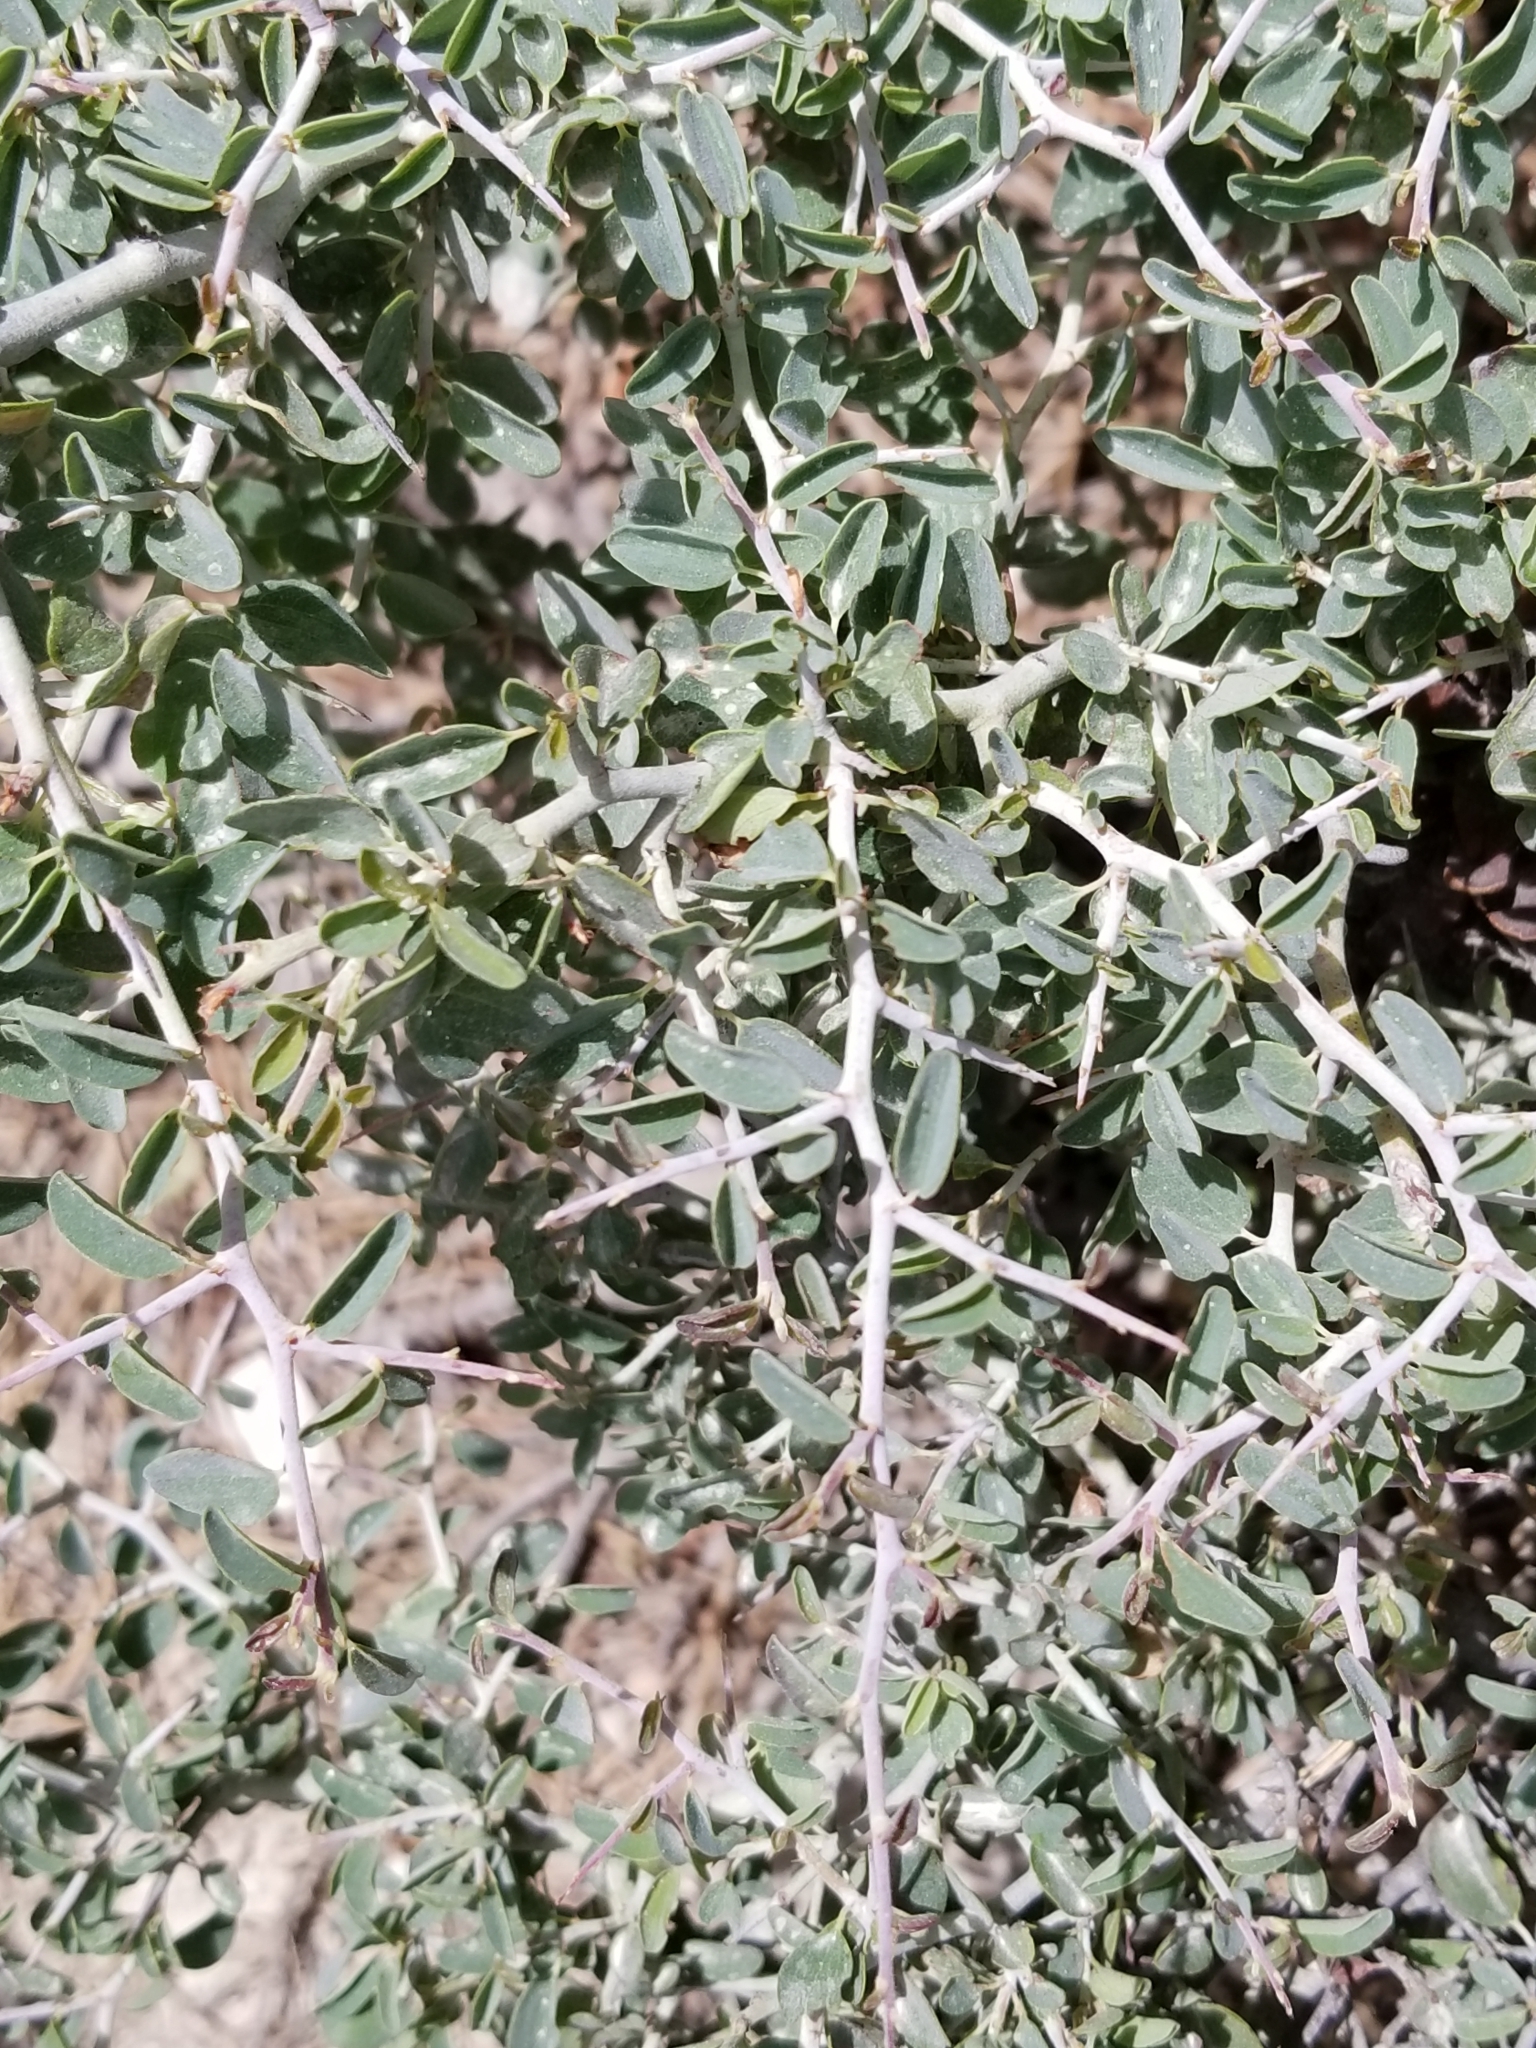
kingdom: Plantae
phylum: Tracheophyta
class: Magnoliopsida
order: Rosales
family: Rhamnaceae
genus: Ceanothus
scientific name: Ceanothus cordulatus
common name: Mountain whitethorn
